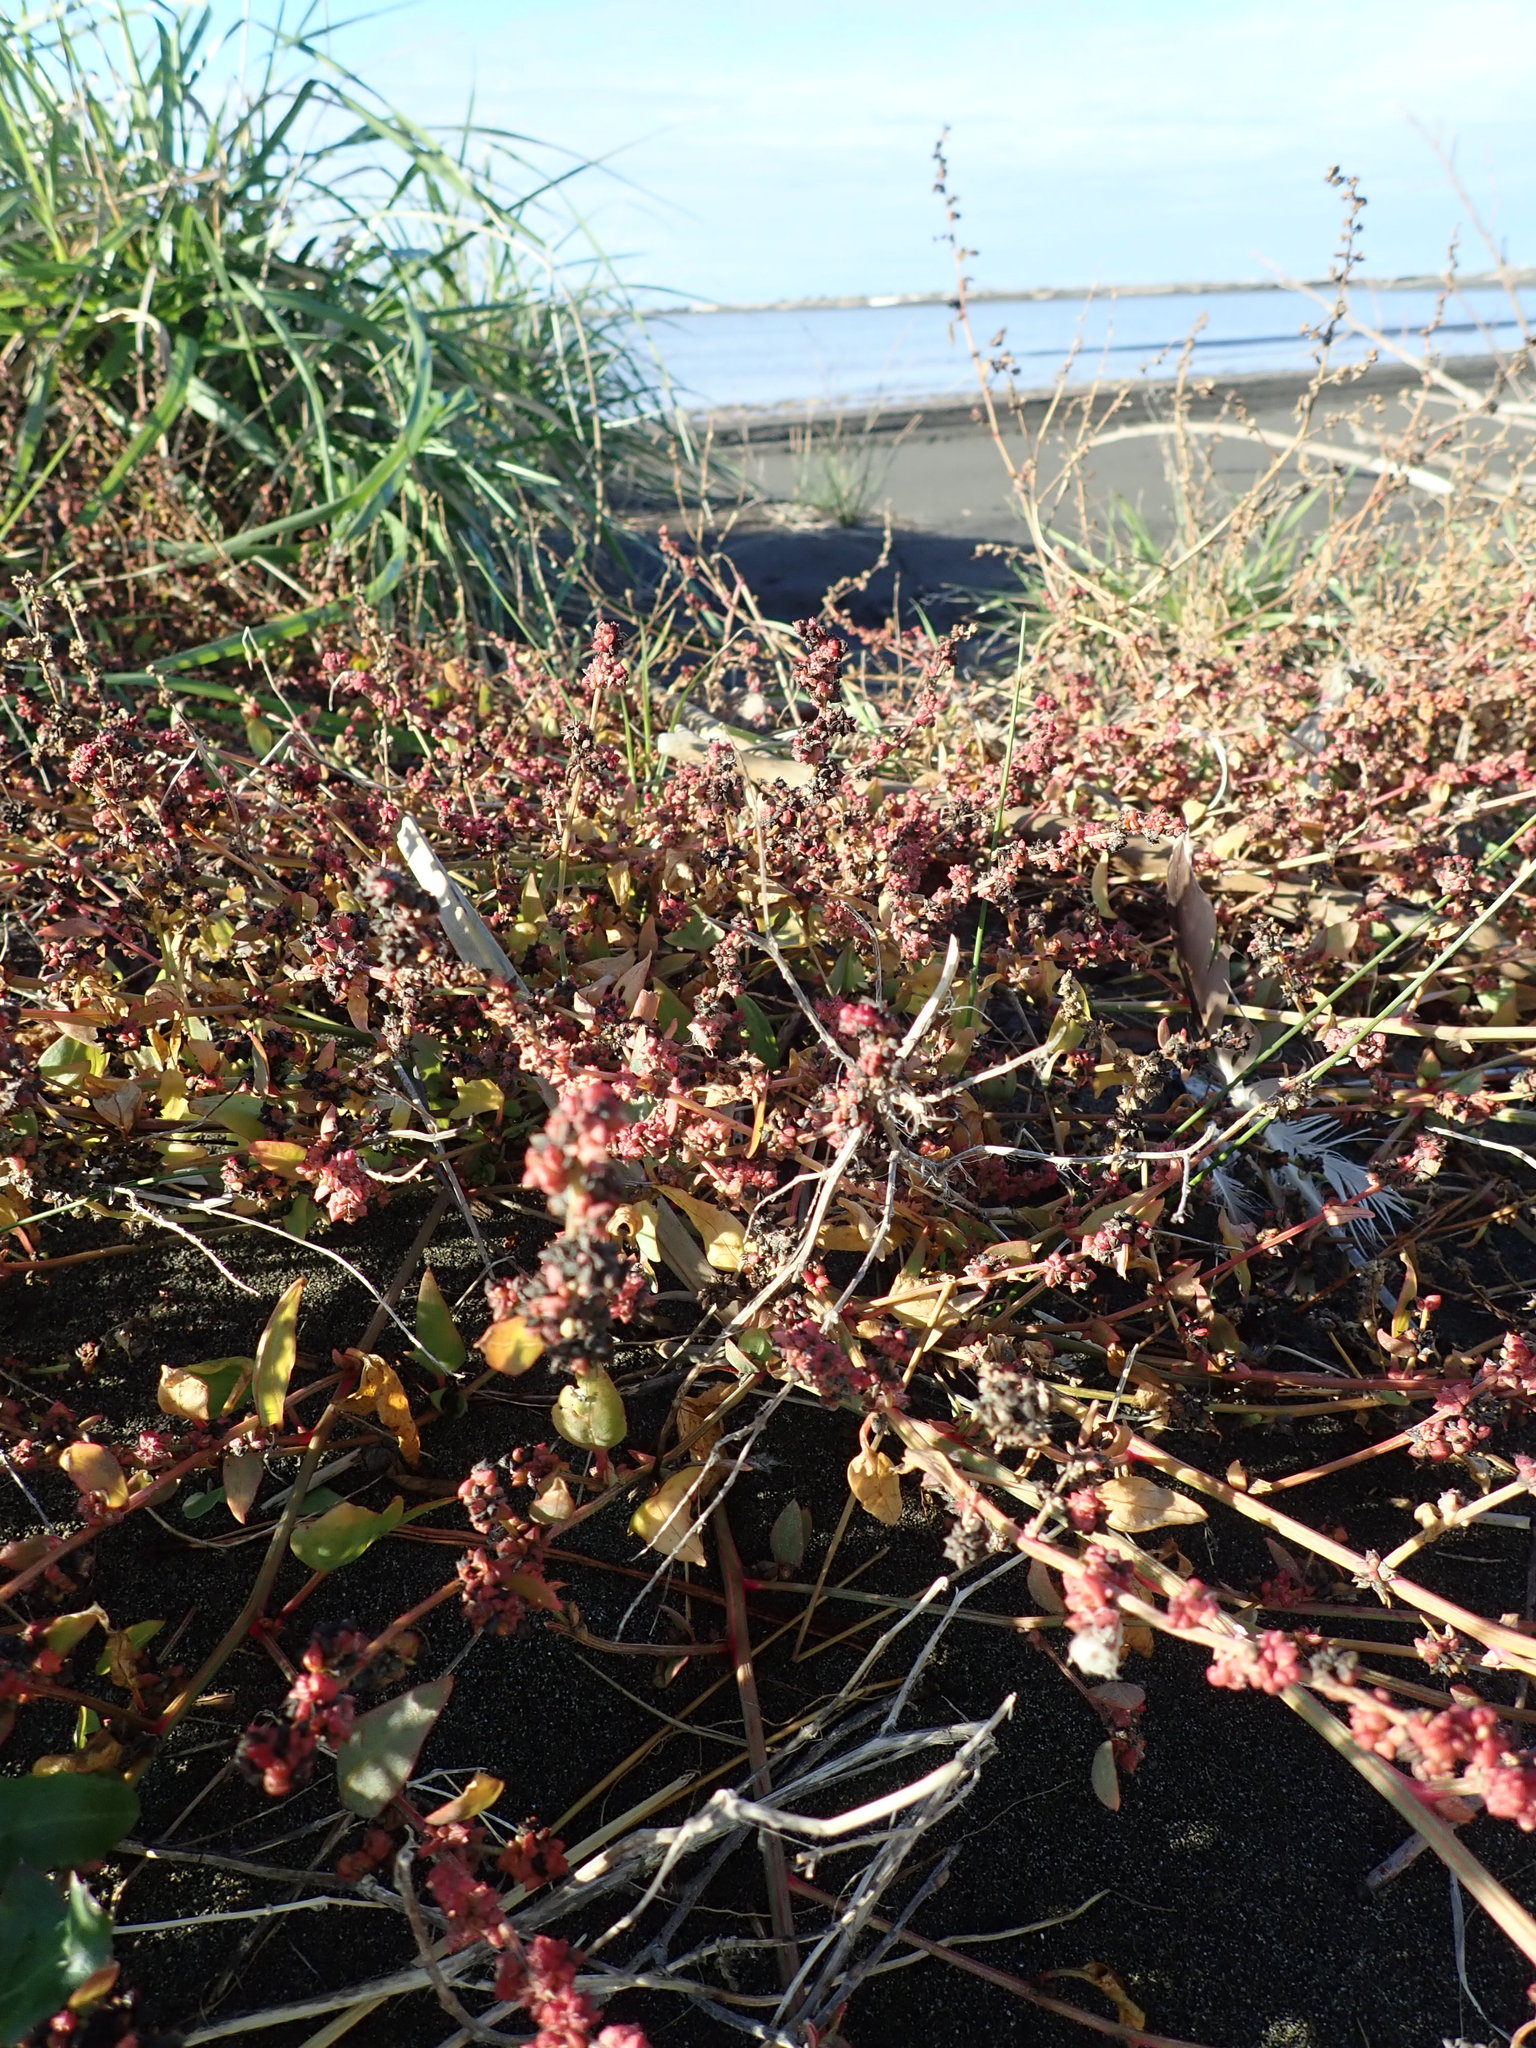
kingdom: Plantae
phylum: Tracheophyta
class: Magnoliopsida
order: Caryophyllales
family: Amaranthaceae
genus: Atriplex
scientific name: Atriplex prostrata
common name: Spear-leaved orache
